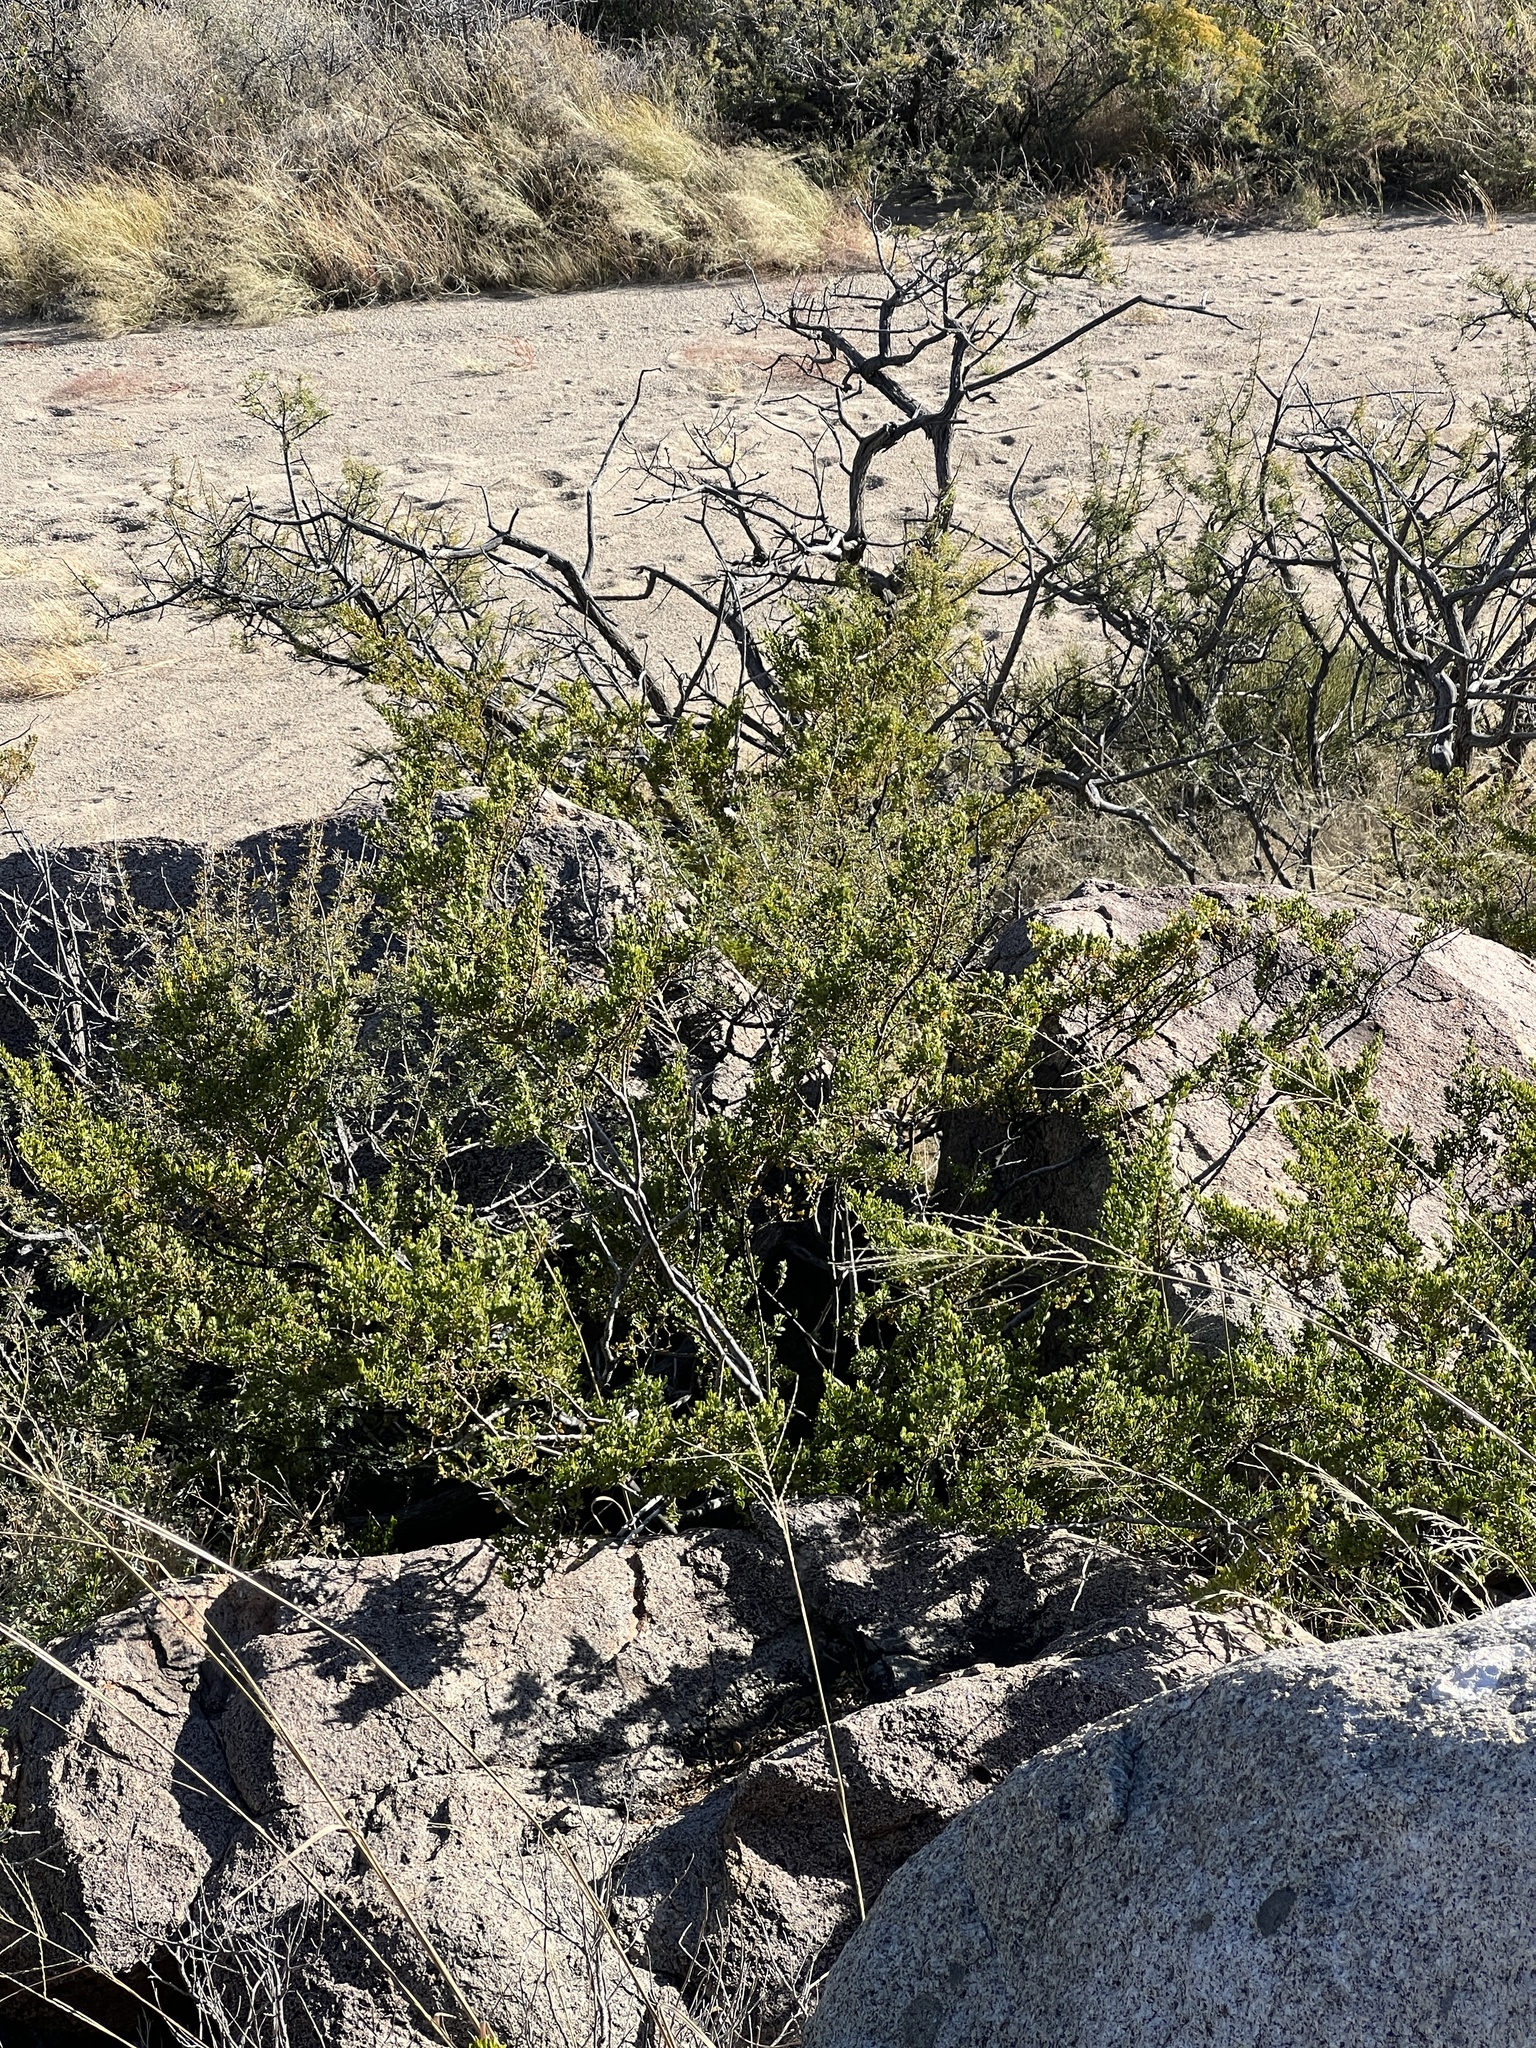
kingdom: Plantae
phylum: Tracheophyta
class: Magnoliopsida
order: Zygophyllales
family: Zygophyllaceae
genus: Larrea
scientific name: Larrea tridentata
